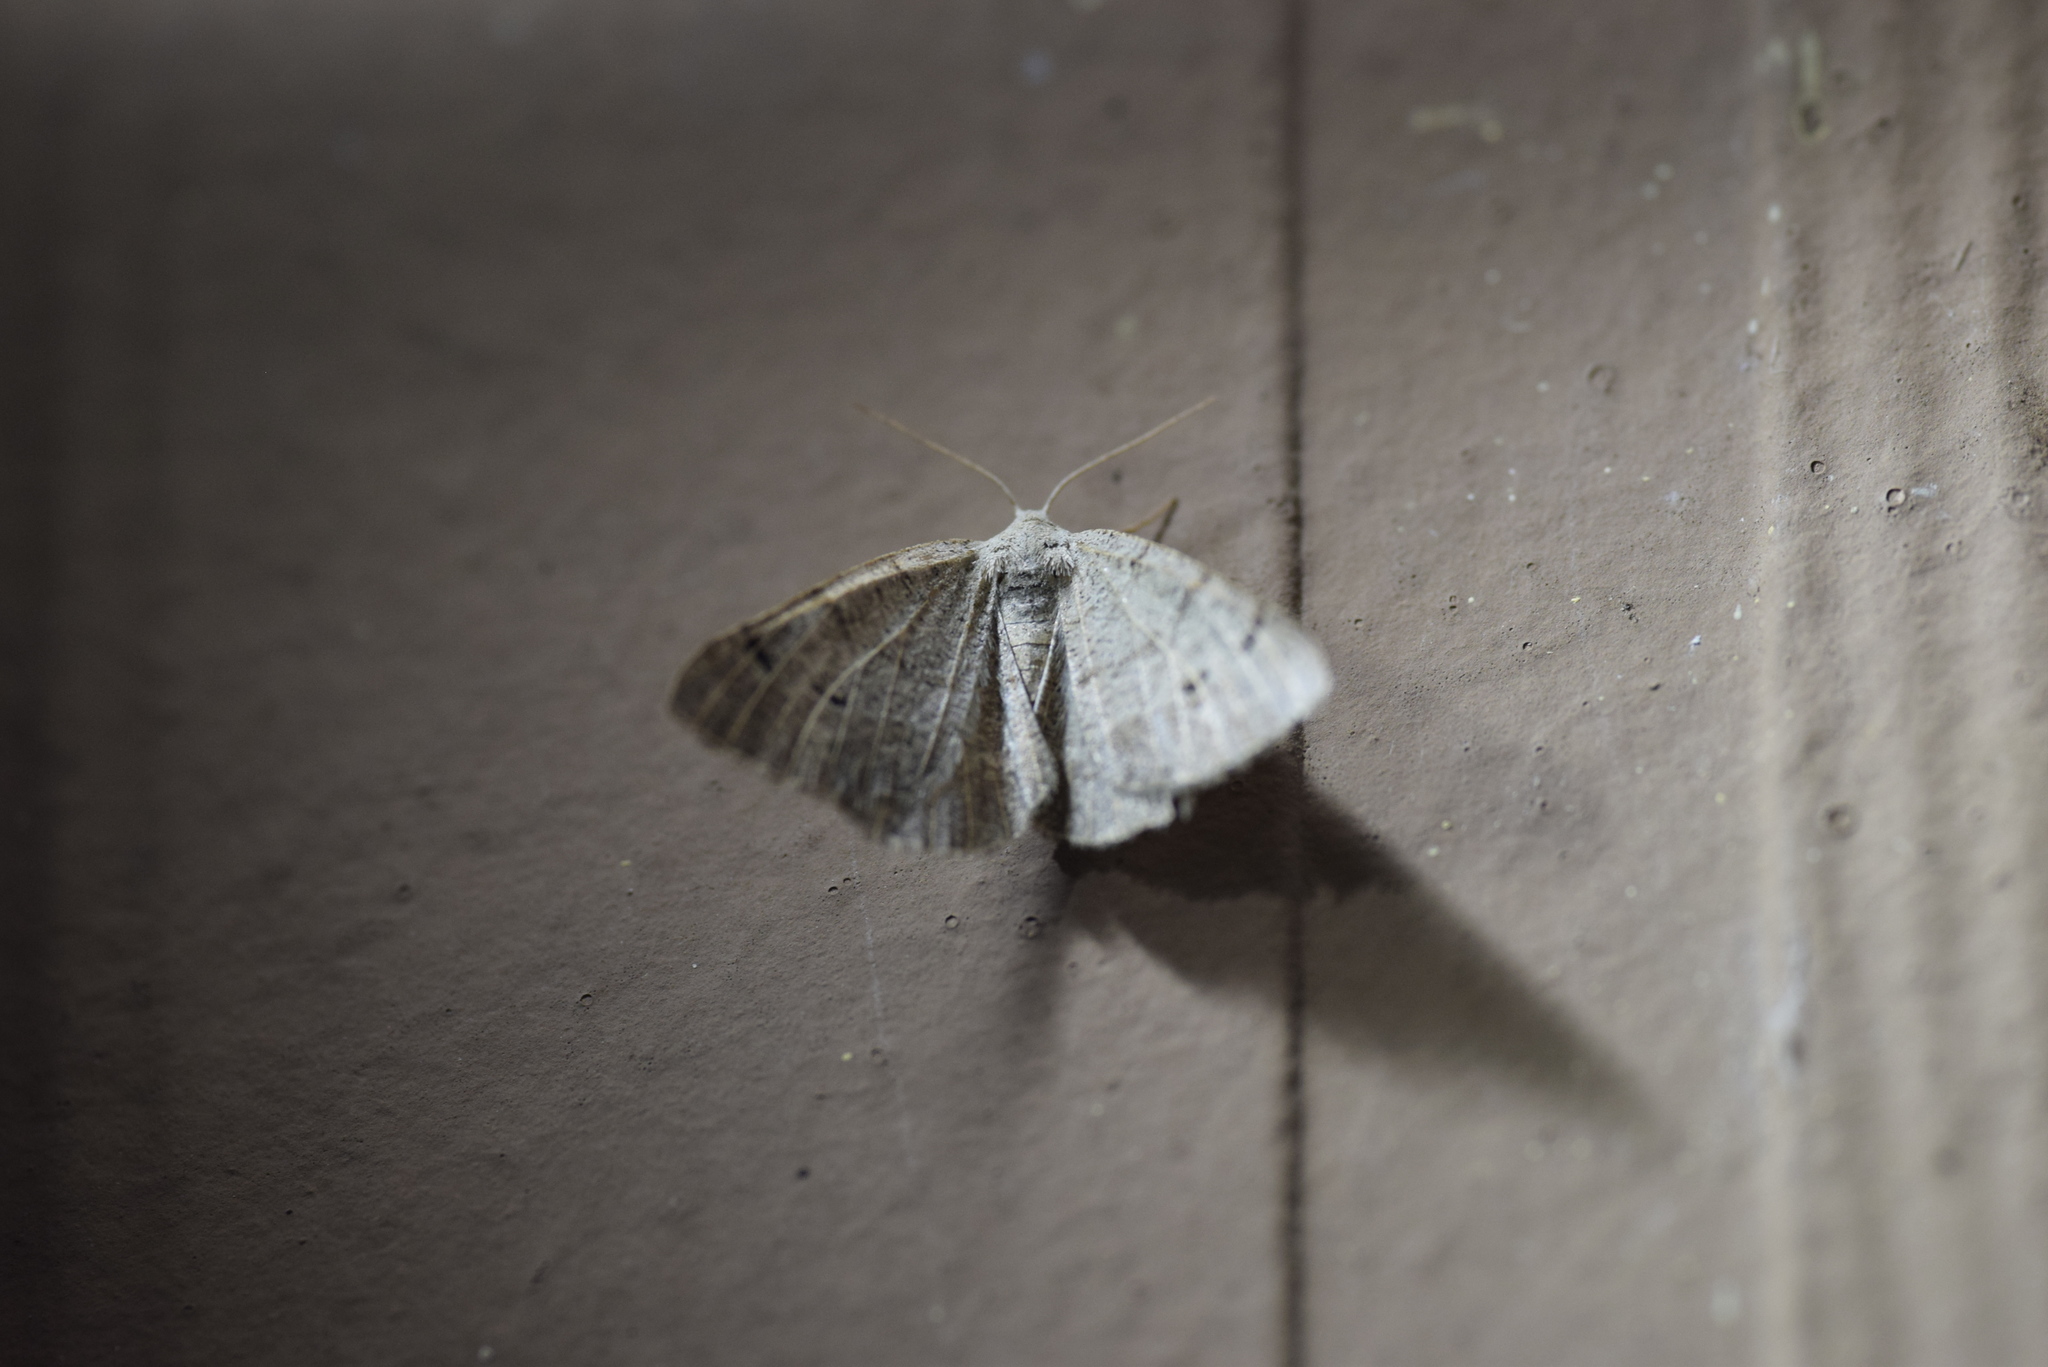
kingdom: Animalia
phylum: Arthropoda
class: Insecta
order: Lepidoptera
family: Geometridae
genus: Isturgia
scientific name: Isturgia dislocaria
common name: Pale-viened enconista
